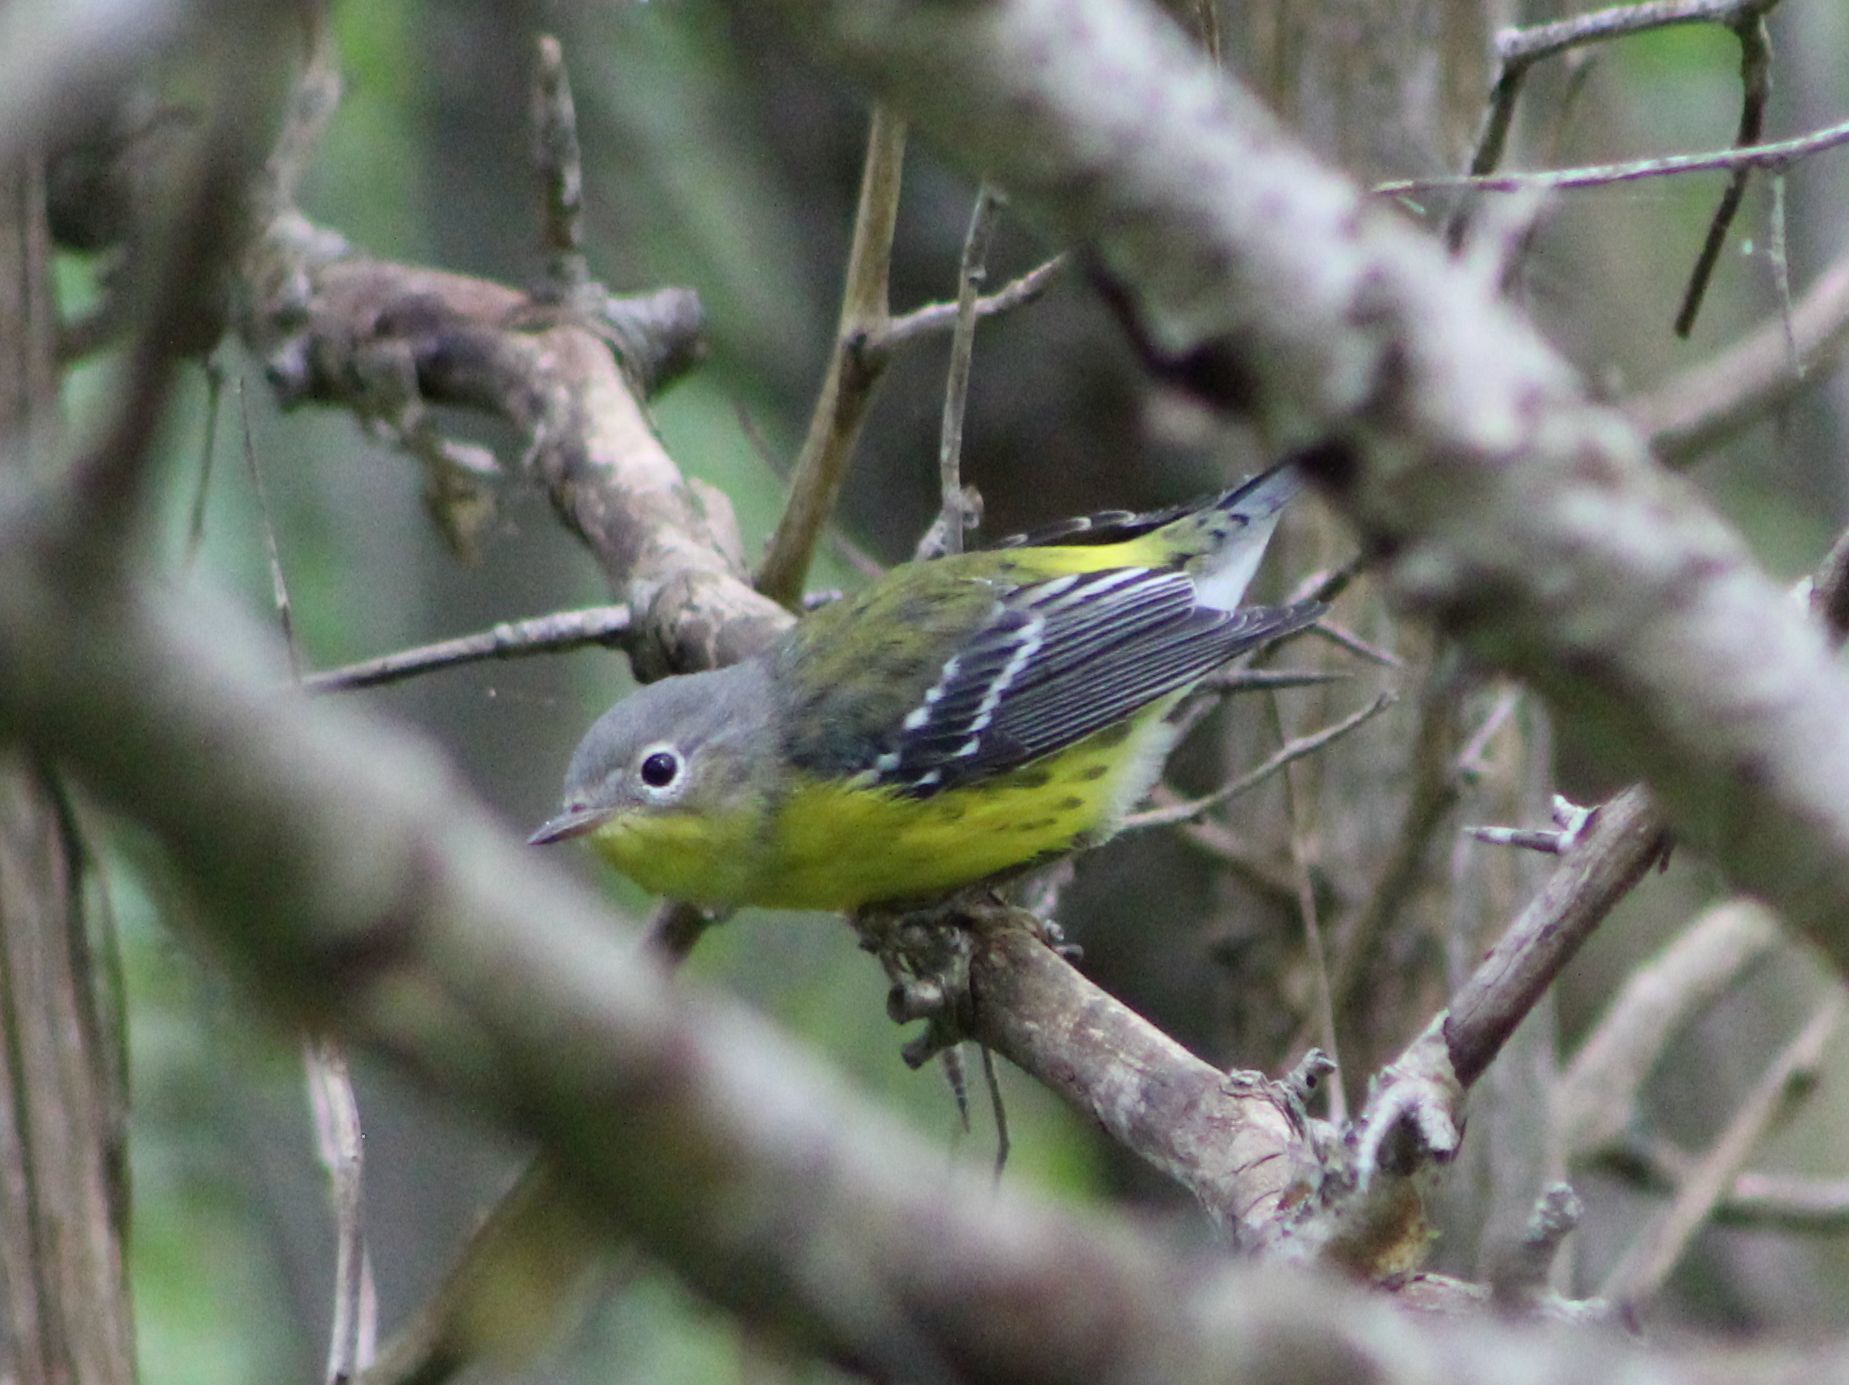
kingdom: Animalia
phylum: Chordata
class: Aves
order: Passeriformes
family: Parulidae
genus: Setophaga
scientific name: Setophaga magnolia
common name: Magnolia warbler
